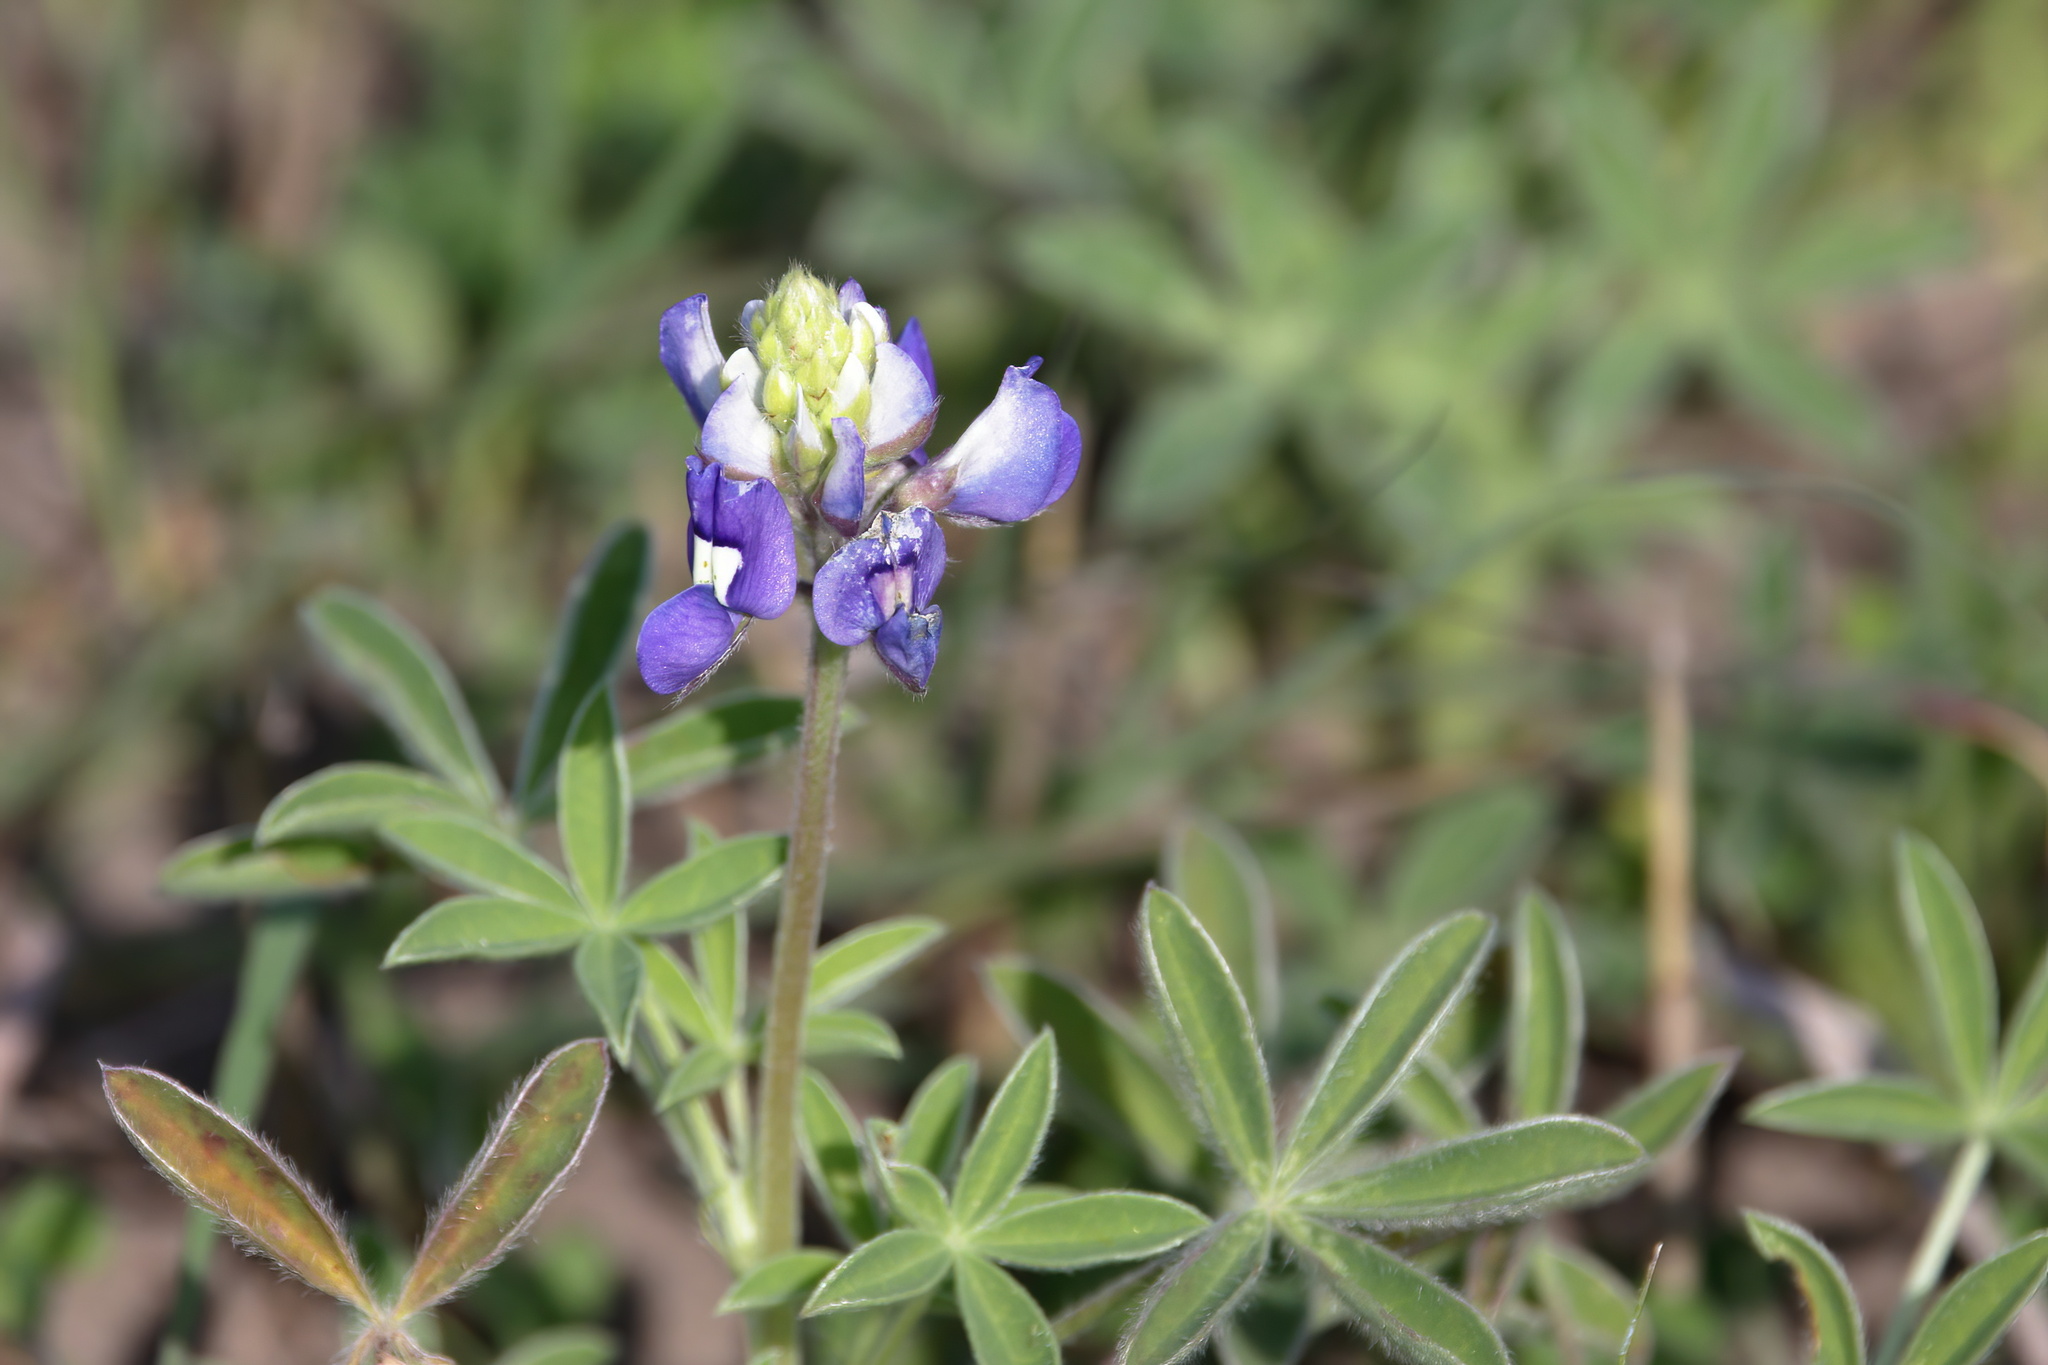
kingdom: Plantae
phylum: Tracheophyta
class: Magnoliopsida
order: Fabales
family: Fabaceae
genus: Lupinus
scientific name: Lupinus texensis
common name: Texas bluebonnet
